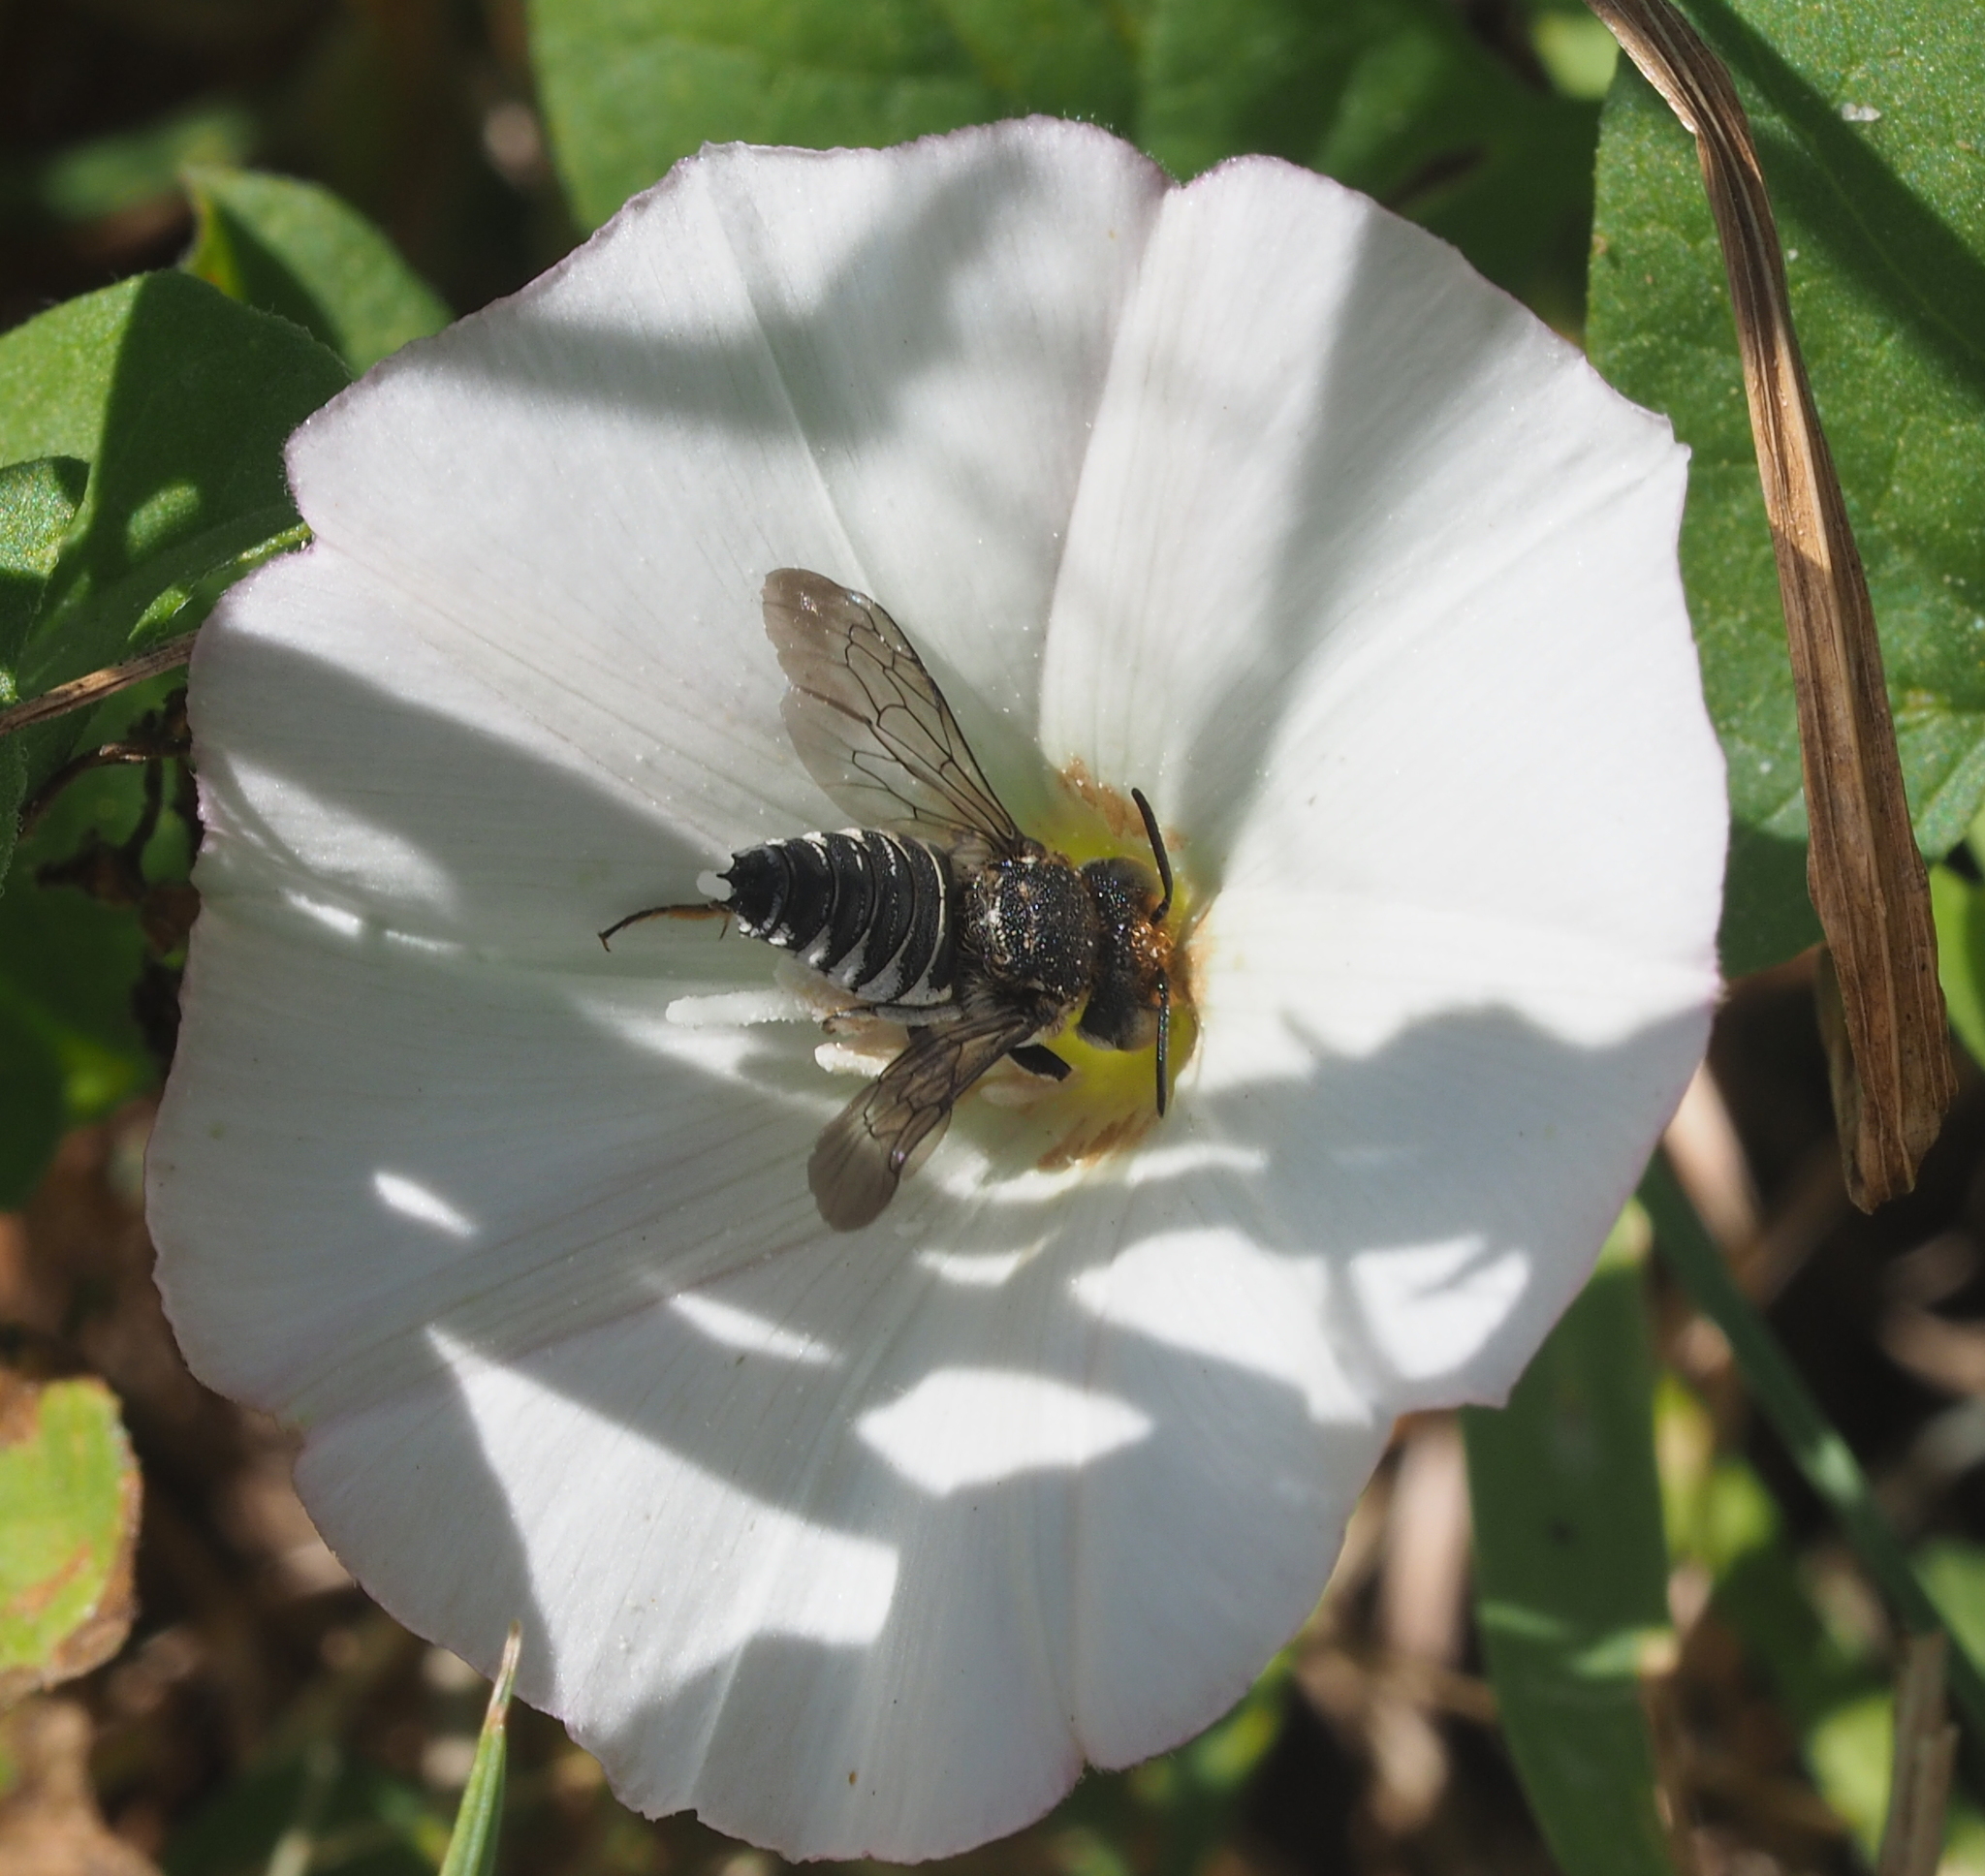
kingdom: Animalia
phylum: Arthropoda
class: Insecta
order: Hymenoptera
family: Megachilidae
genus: Coelioxys
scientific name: Coelioxys afra
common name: Short sharp-tail bee
